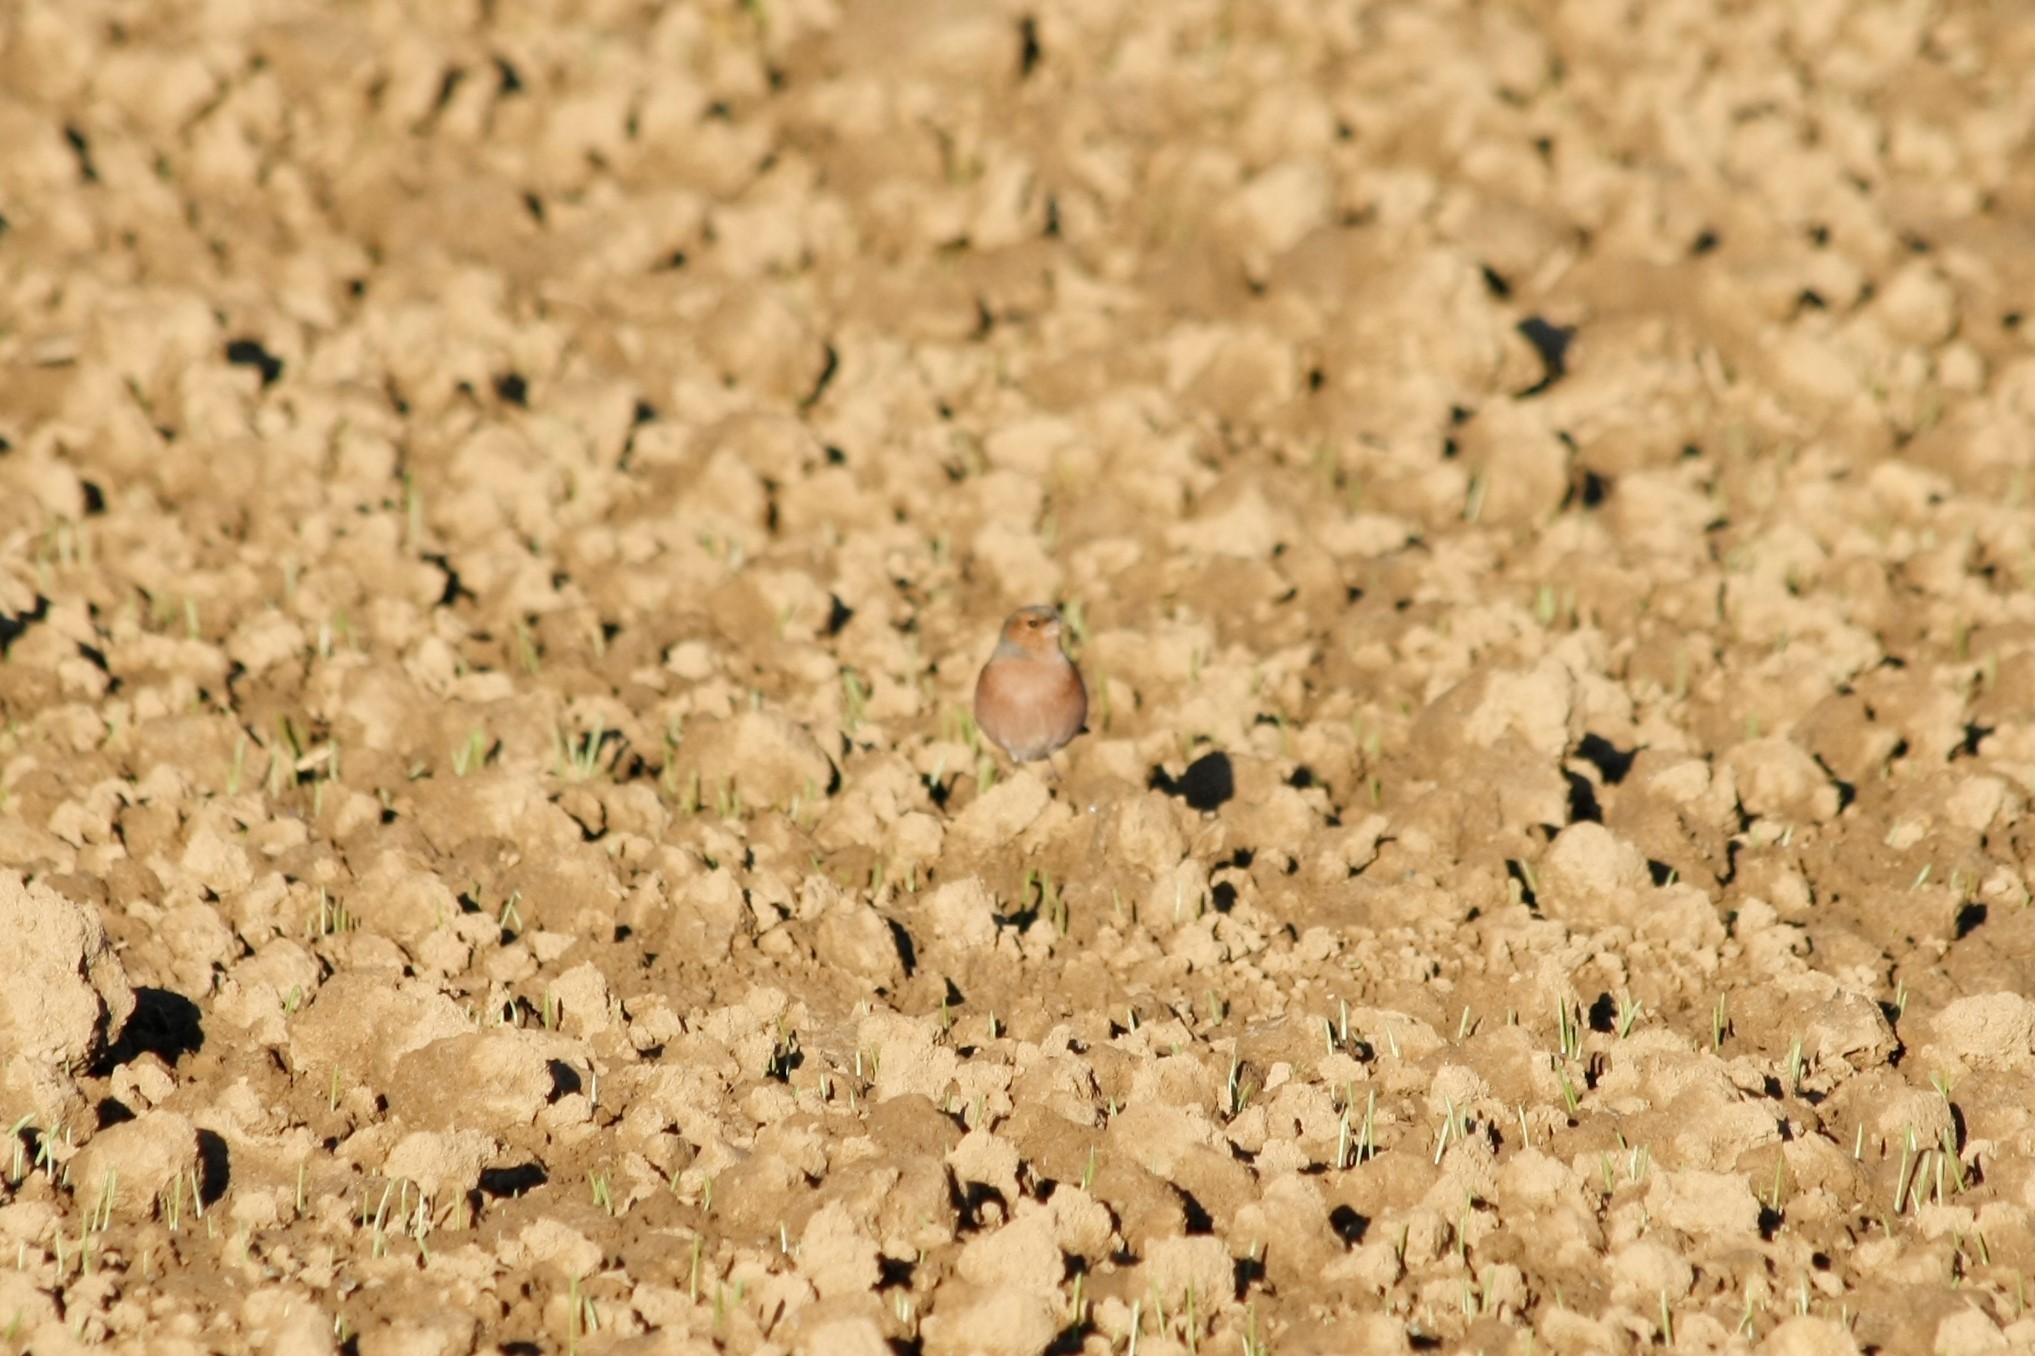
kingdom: Animalia
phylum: Chordata
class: Aves
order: Passeriformes
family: Fringillidae
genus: Fringilla
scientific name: Fringilla coelebs
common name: Common chaffinch
